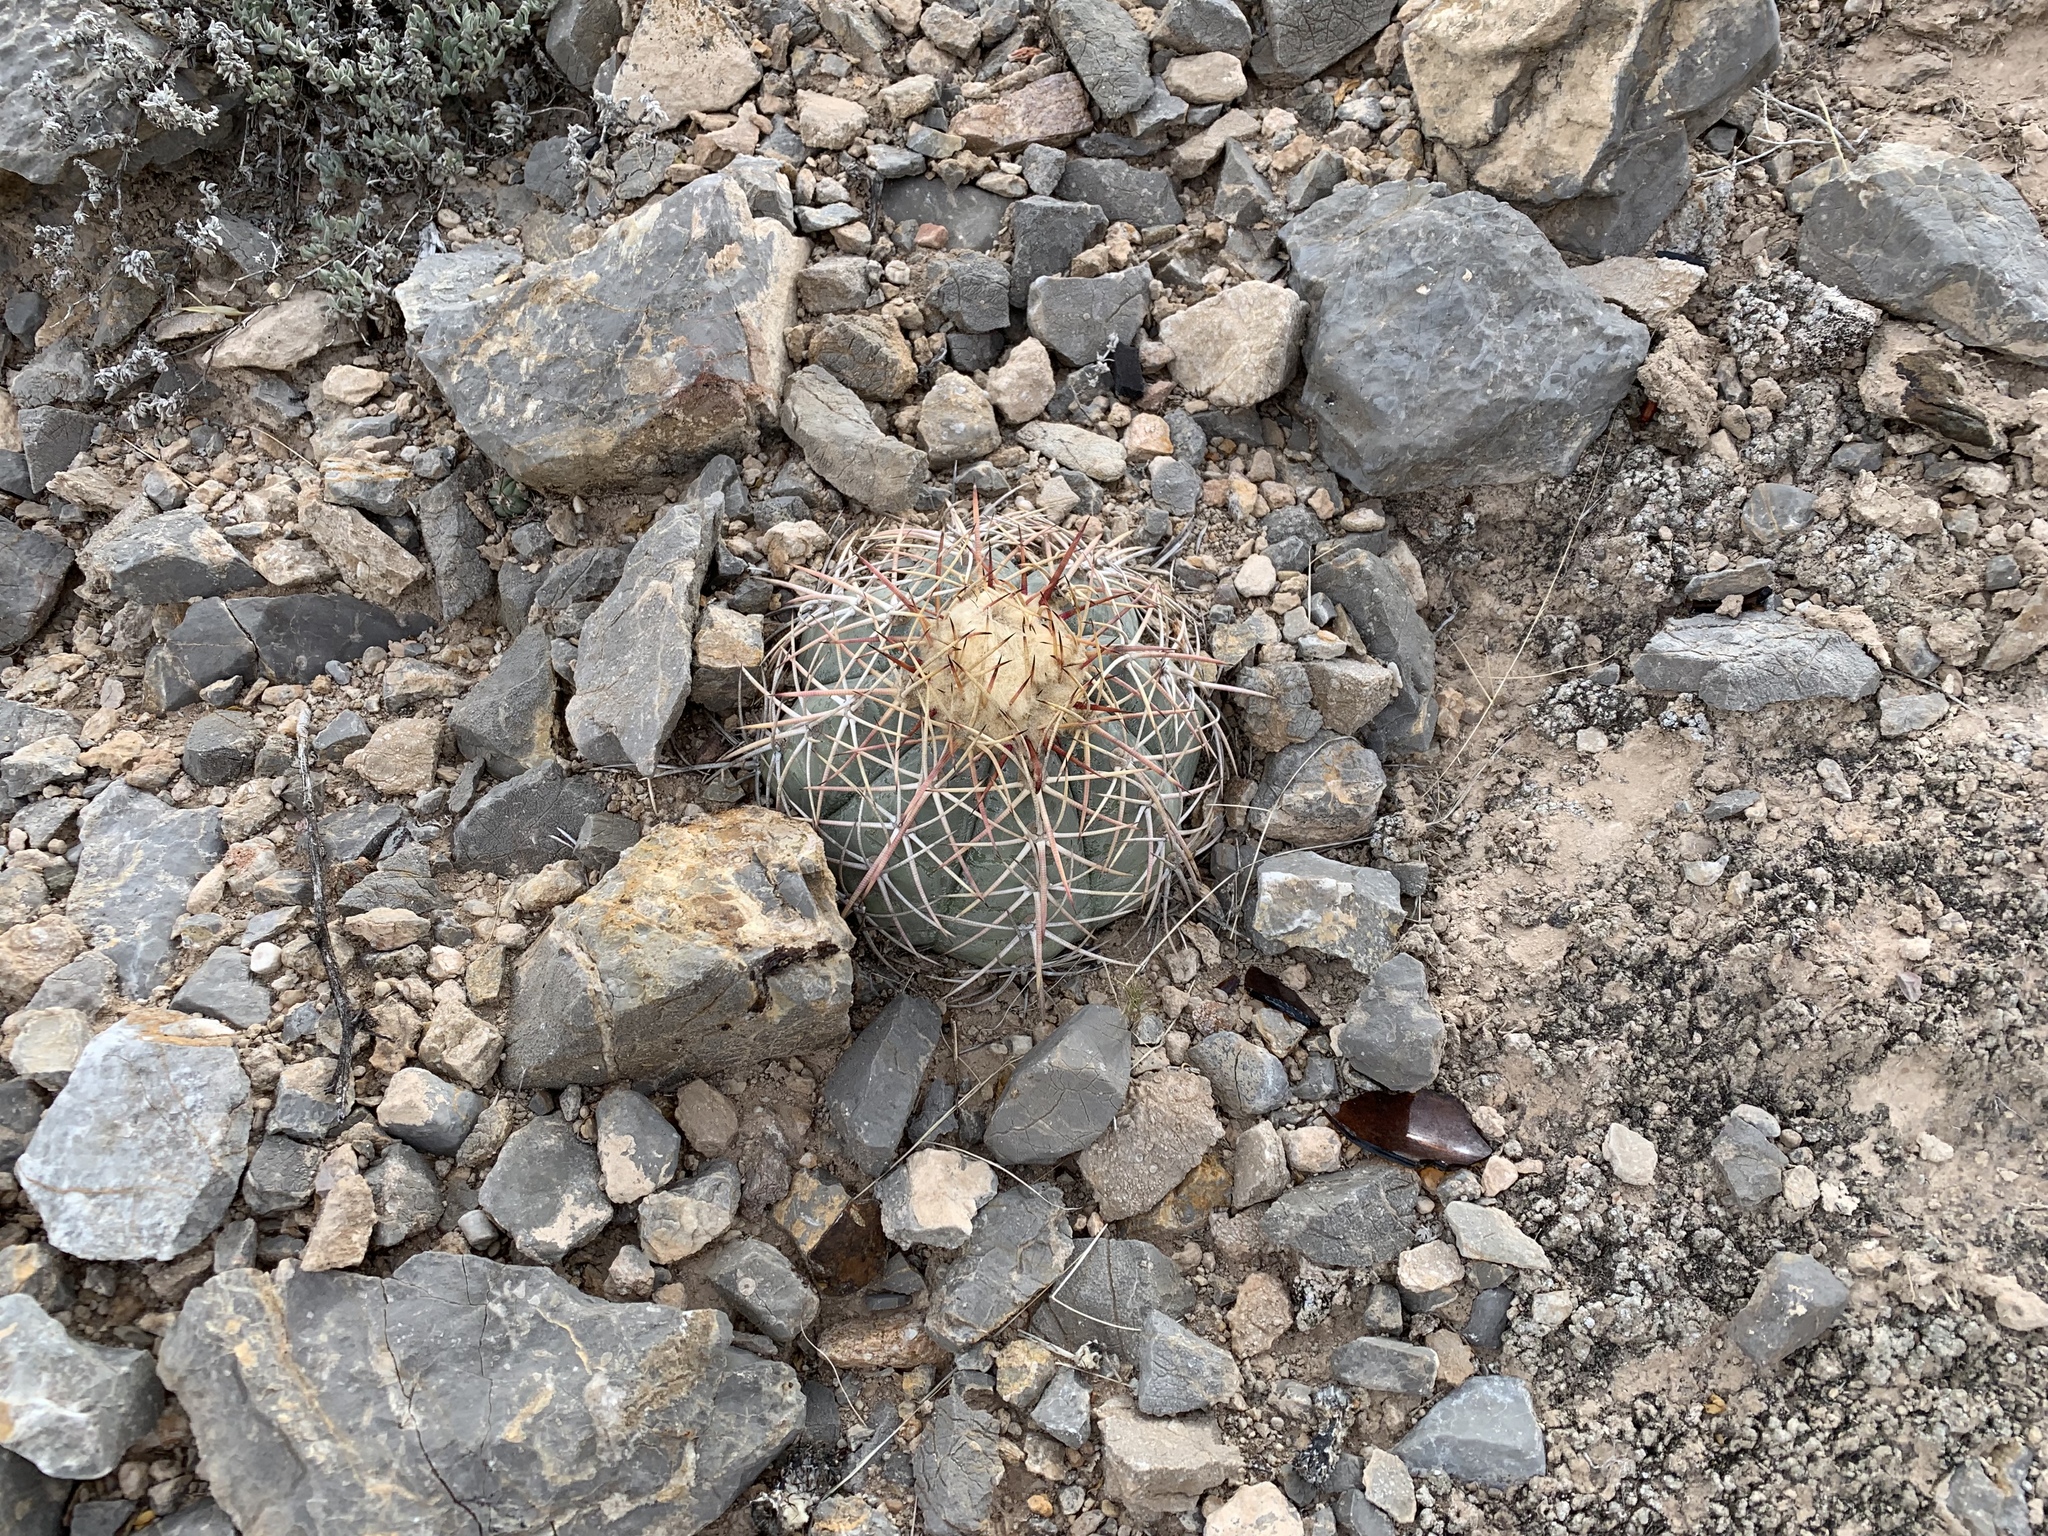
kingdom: Plantae
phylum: Tracheophyta
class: Magnoliopsida
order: Caryophyllales
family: Cactaceae
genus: Echinocactus
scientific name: Echinocactus horizonthalonius
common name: Devilshead
